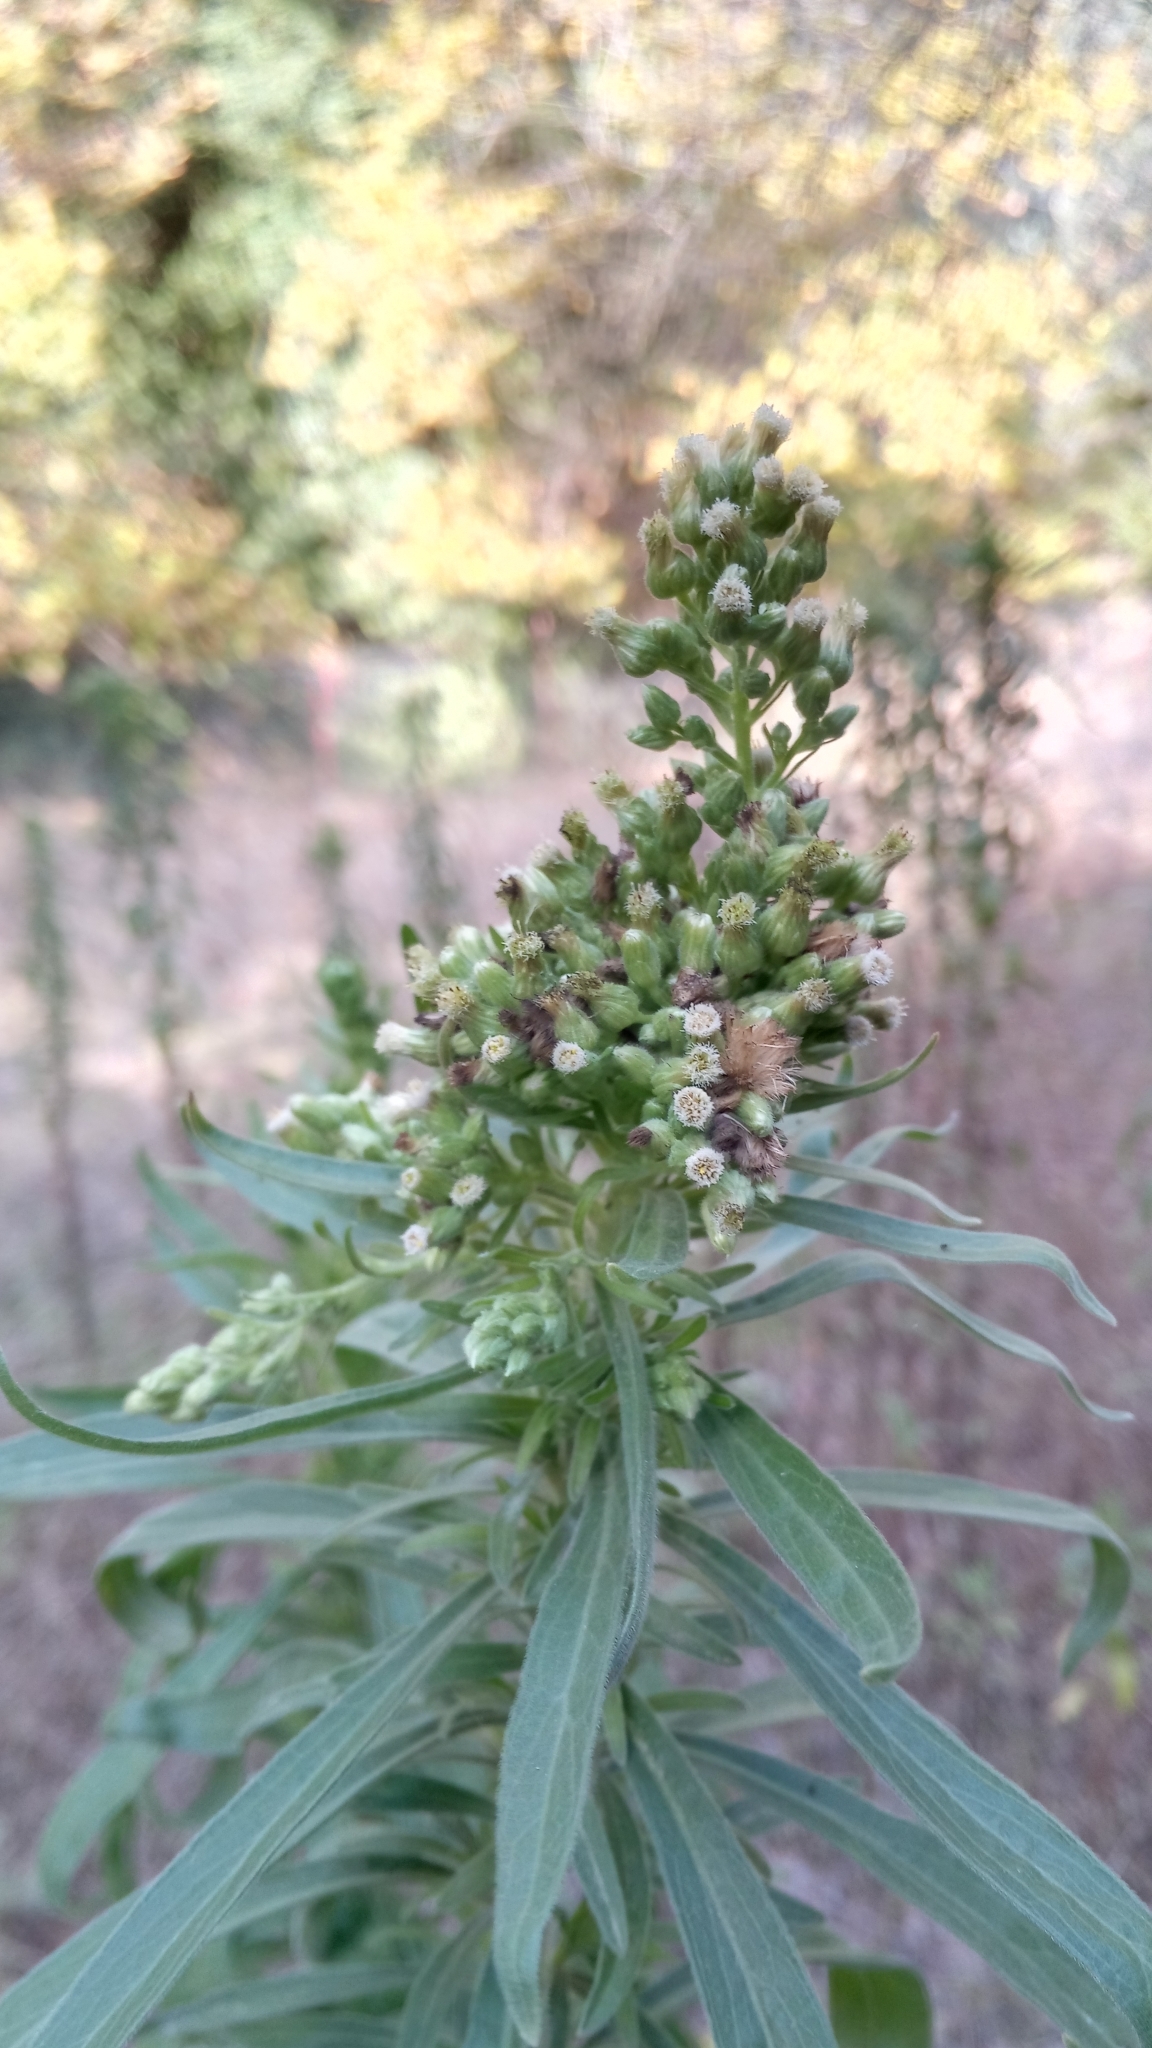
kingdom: Plantae
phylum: Tracheophyta
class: Magnoliopsida
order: Asterales
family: Asteraceae
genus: Erigeron
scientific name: Erigeron sumatrensis
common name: Daisy
